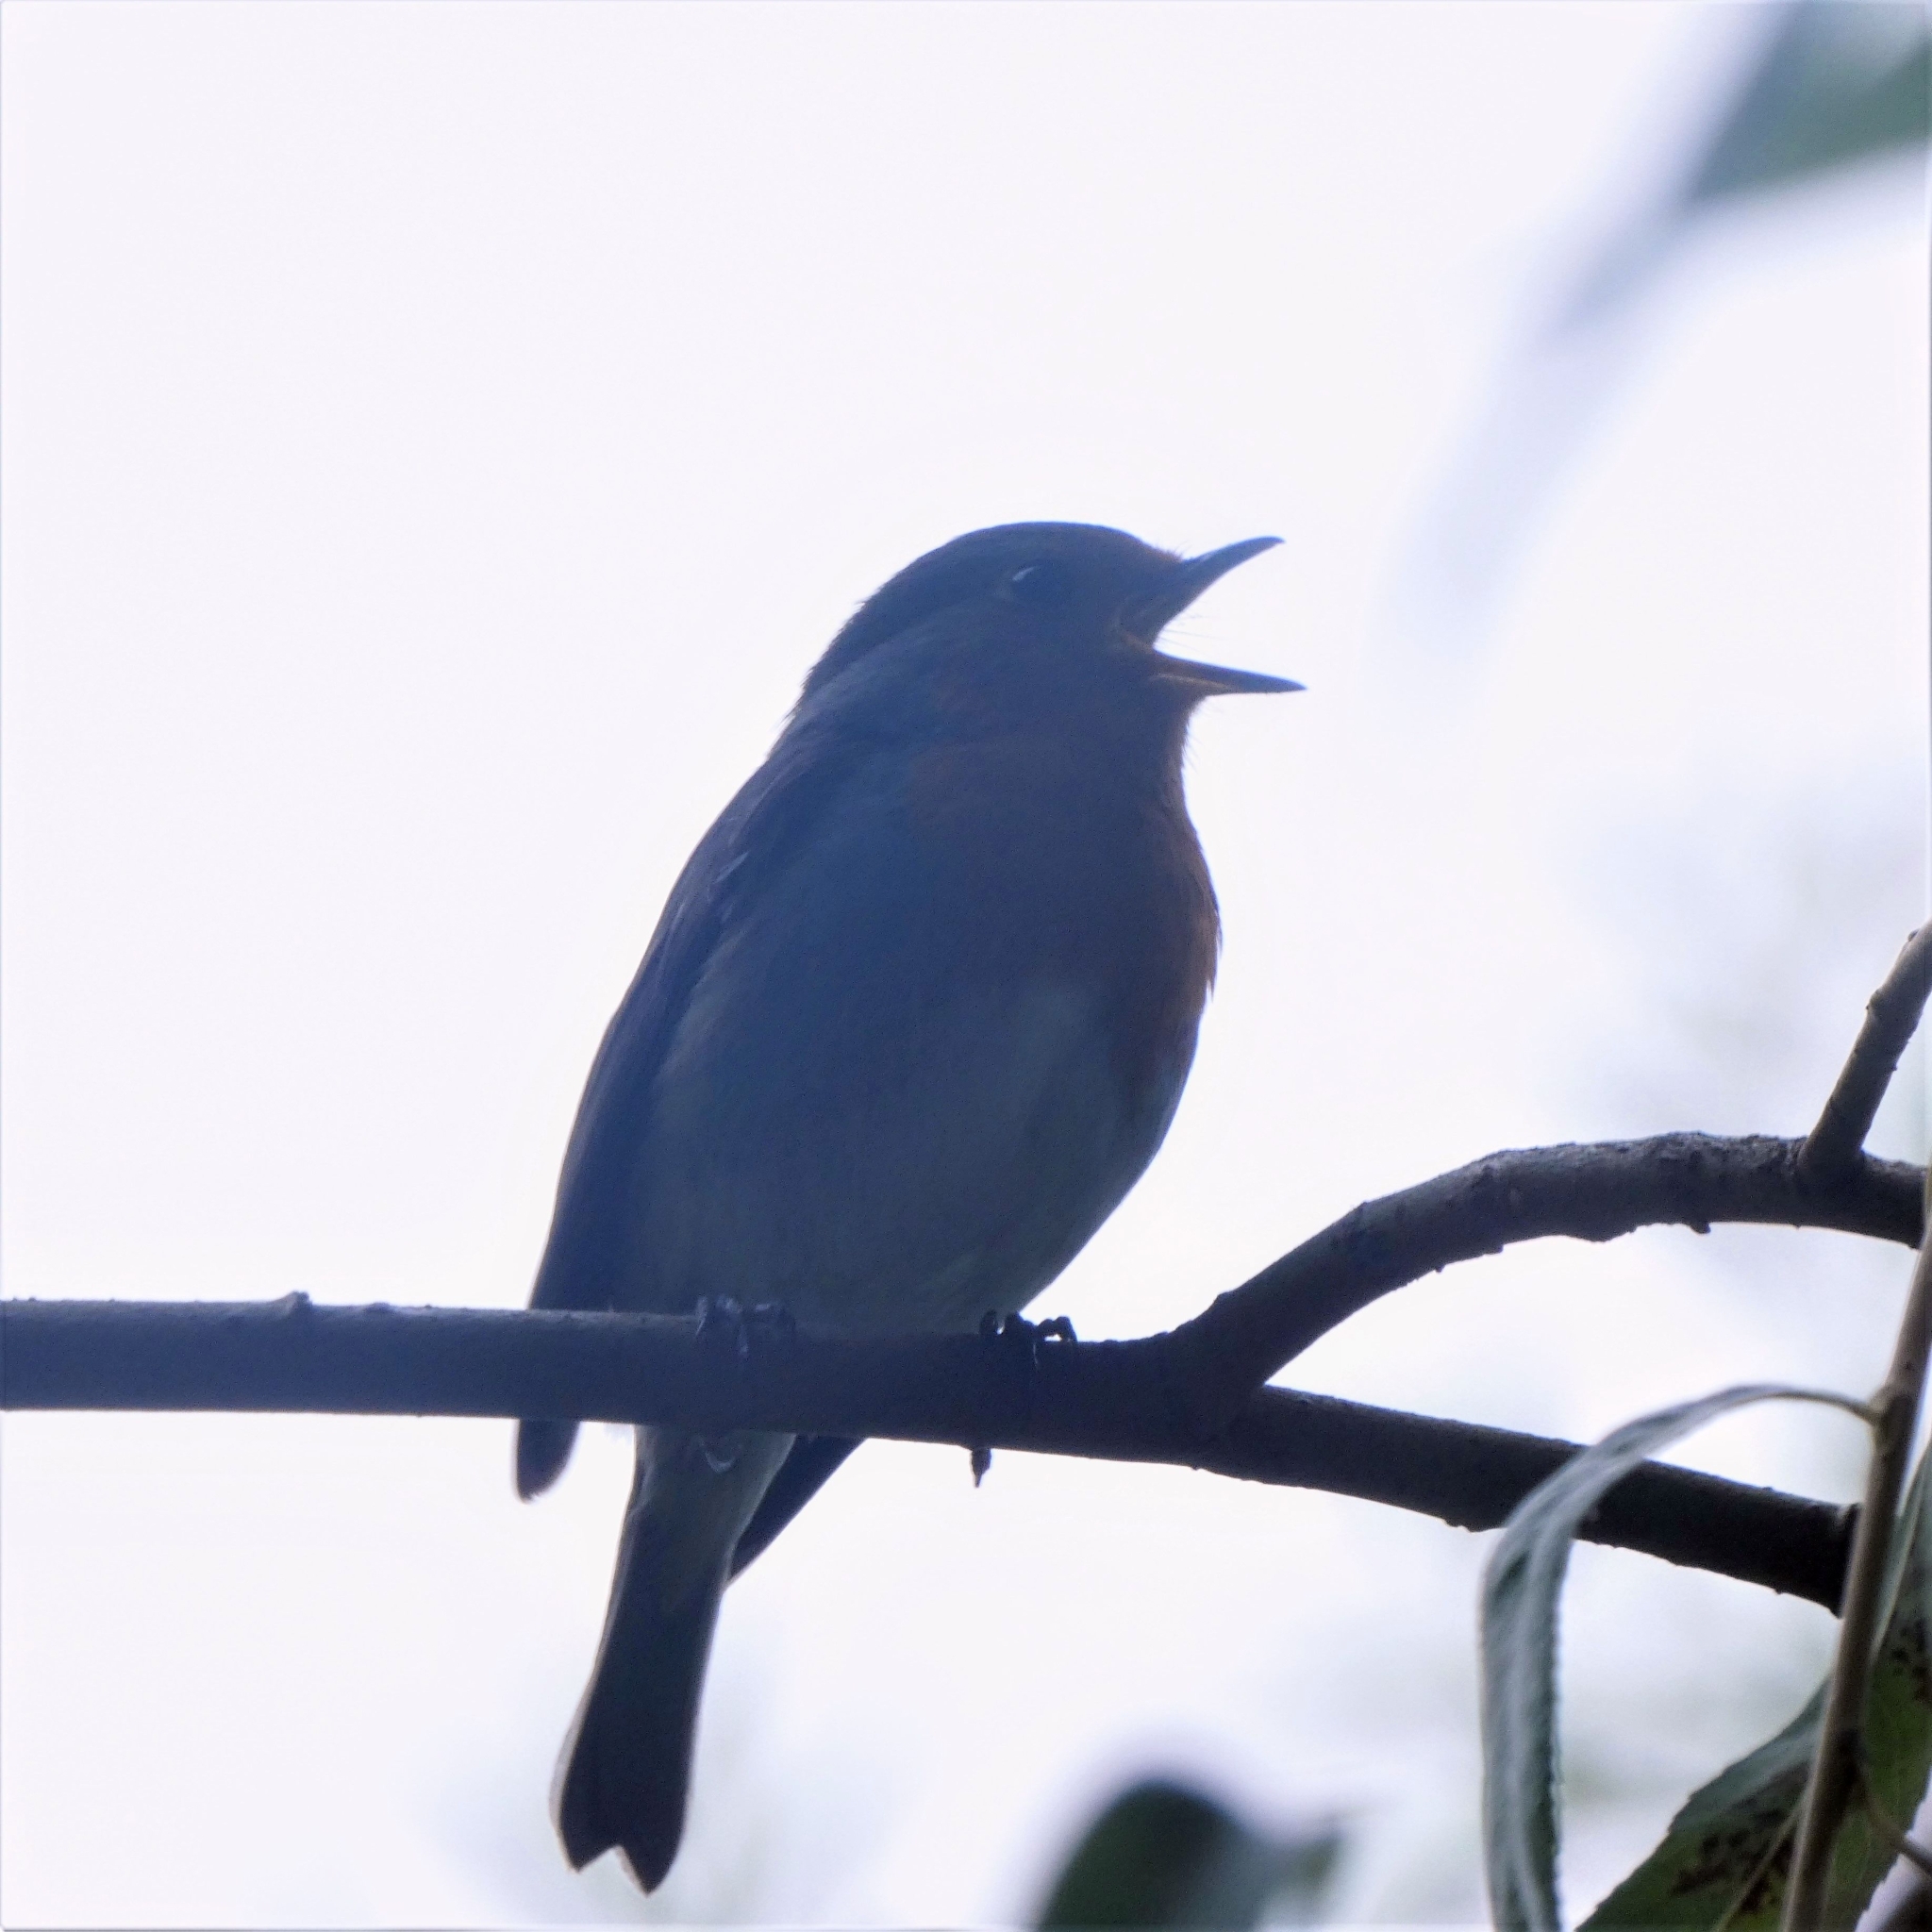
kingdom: Animalia
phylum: Chordata
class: Aves
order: Passeriformes
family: Muscicapidae
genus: Erithacus
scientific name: Erithacus rubecula
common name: European robin
